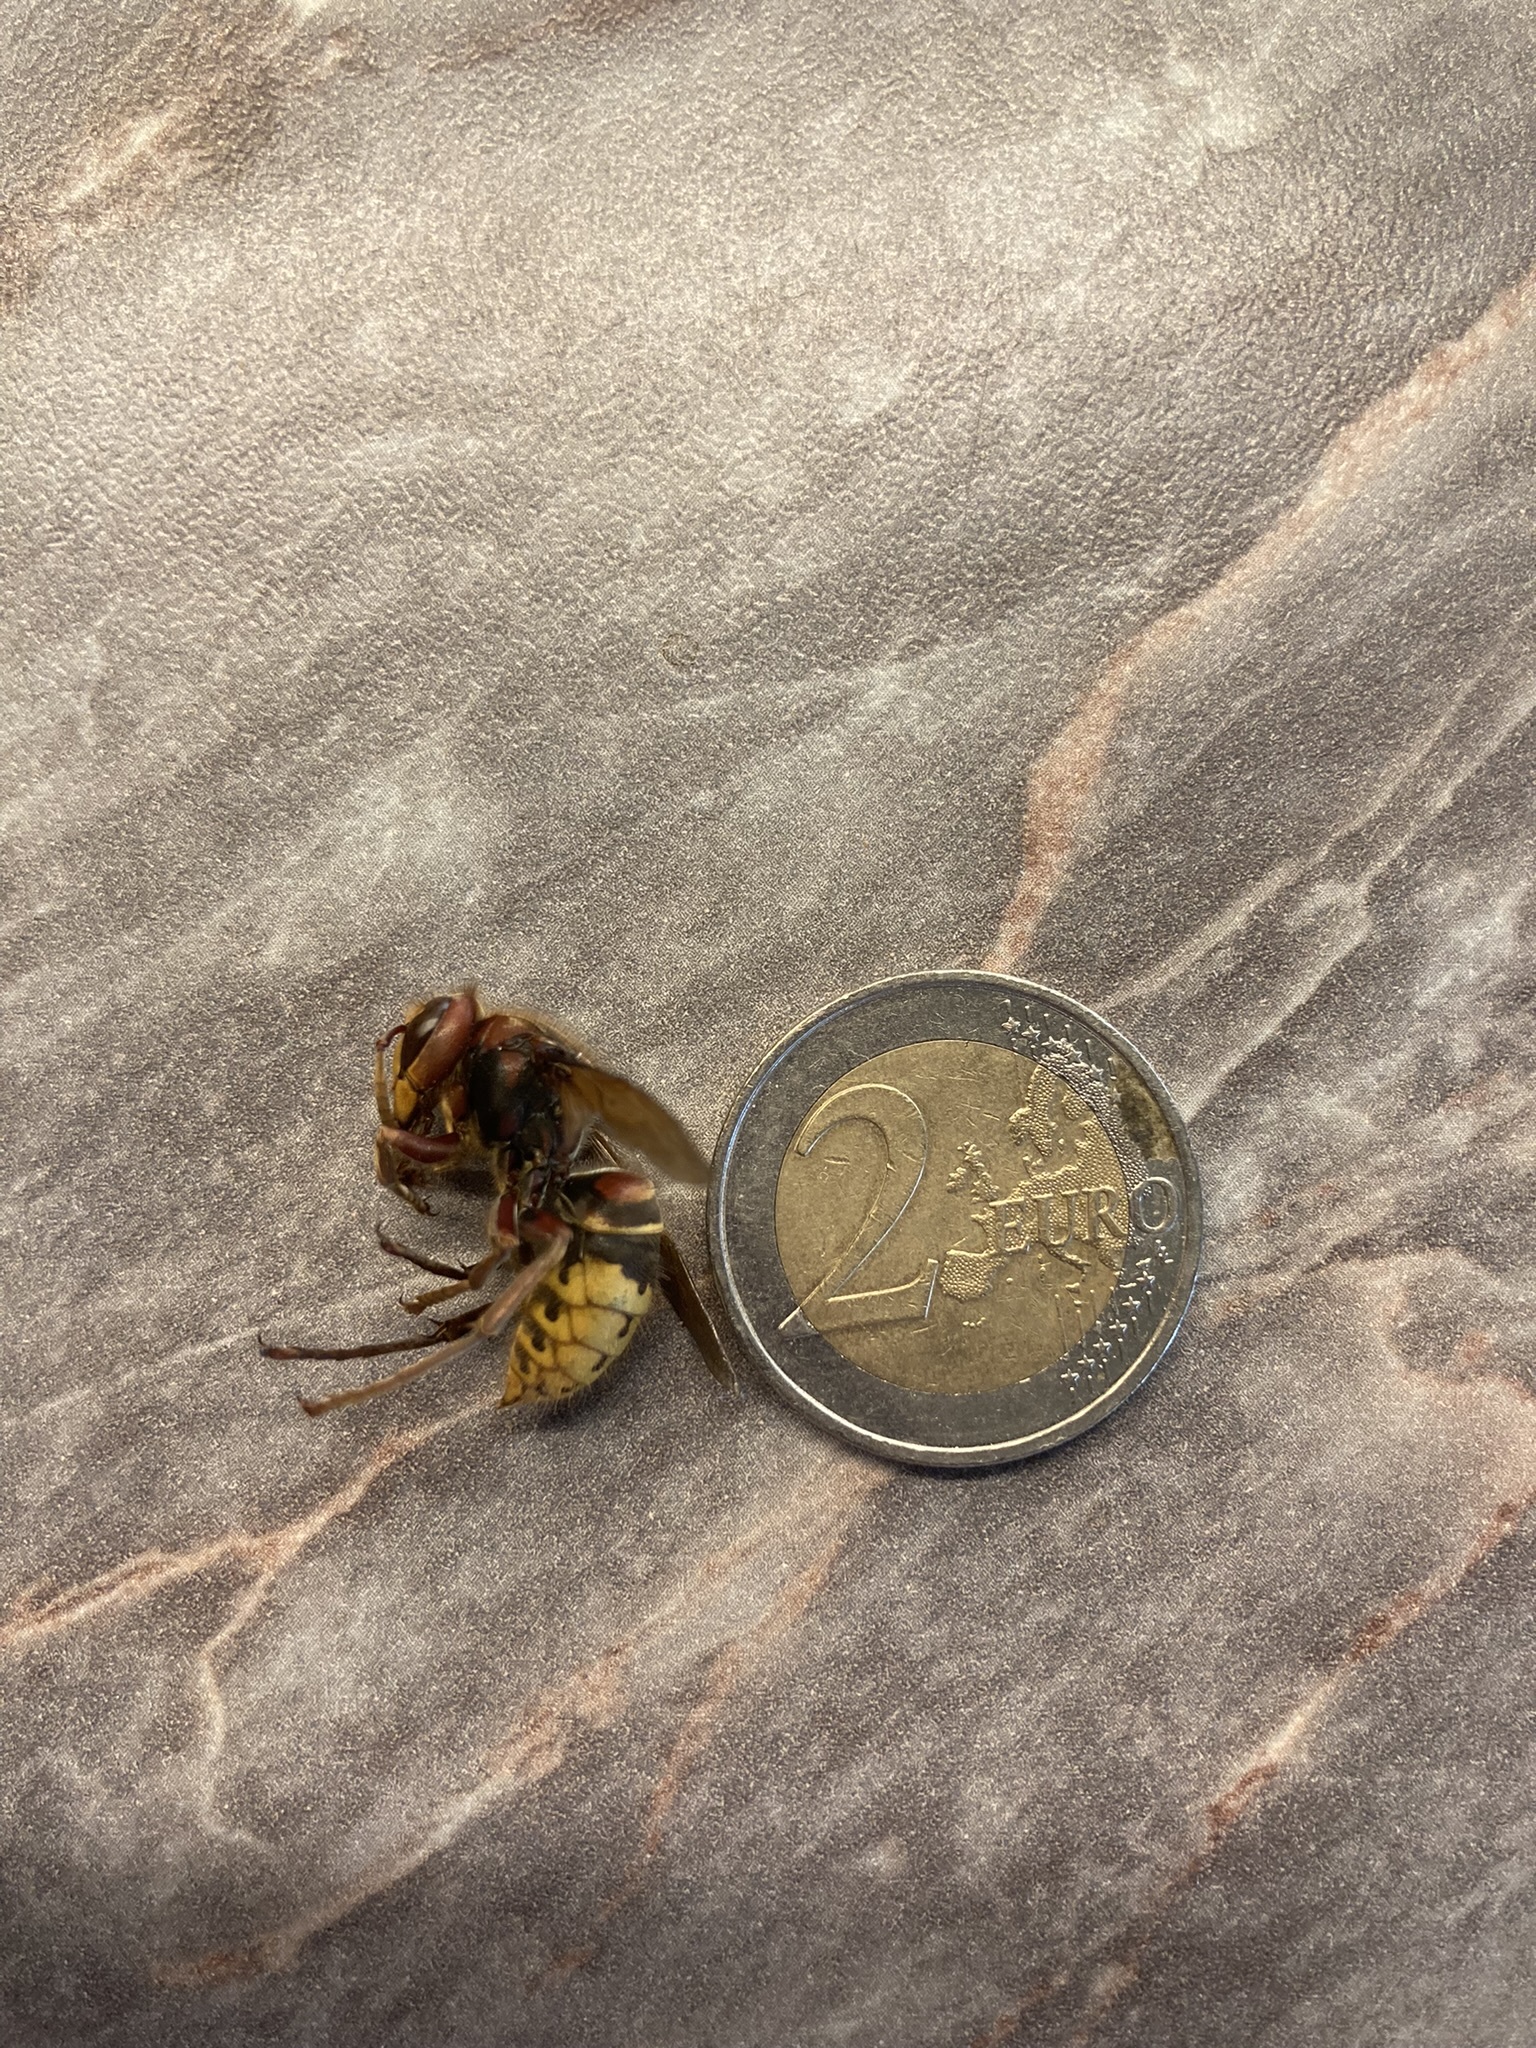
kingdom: Animalia
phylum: Arthropoda
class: Insecta
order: Hymenoptera
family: Vespidae
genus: Vespa
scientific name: Vespa crabro
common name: Hornet
